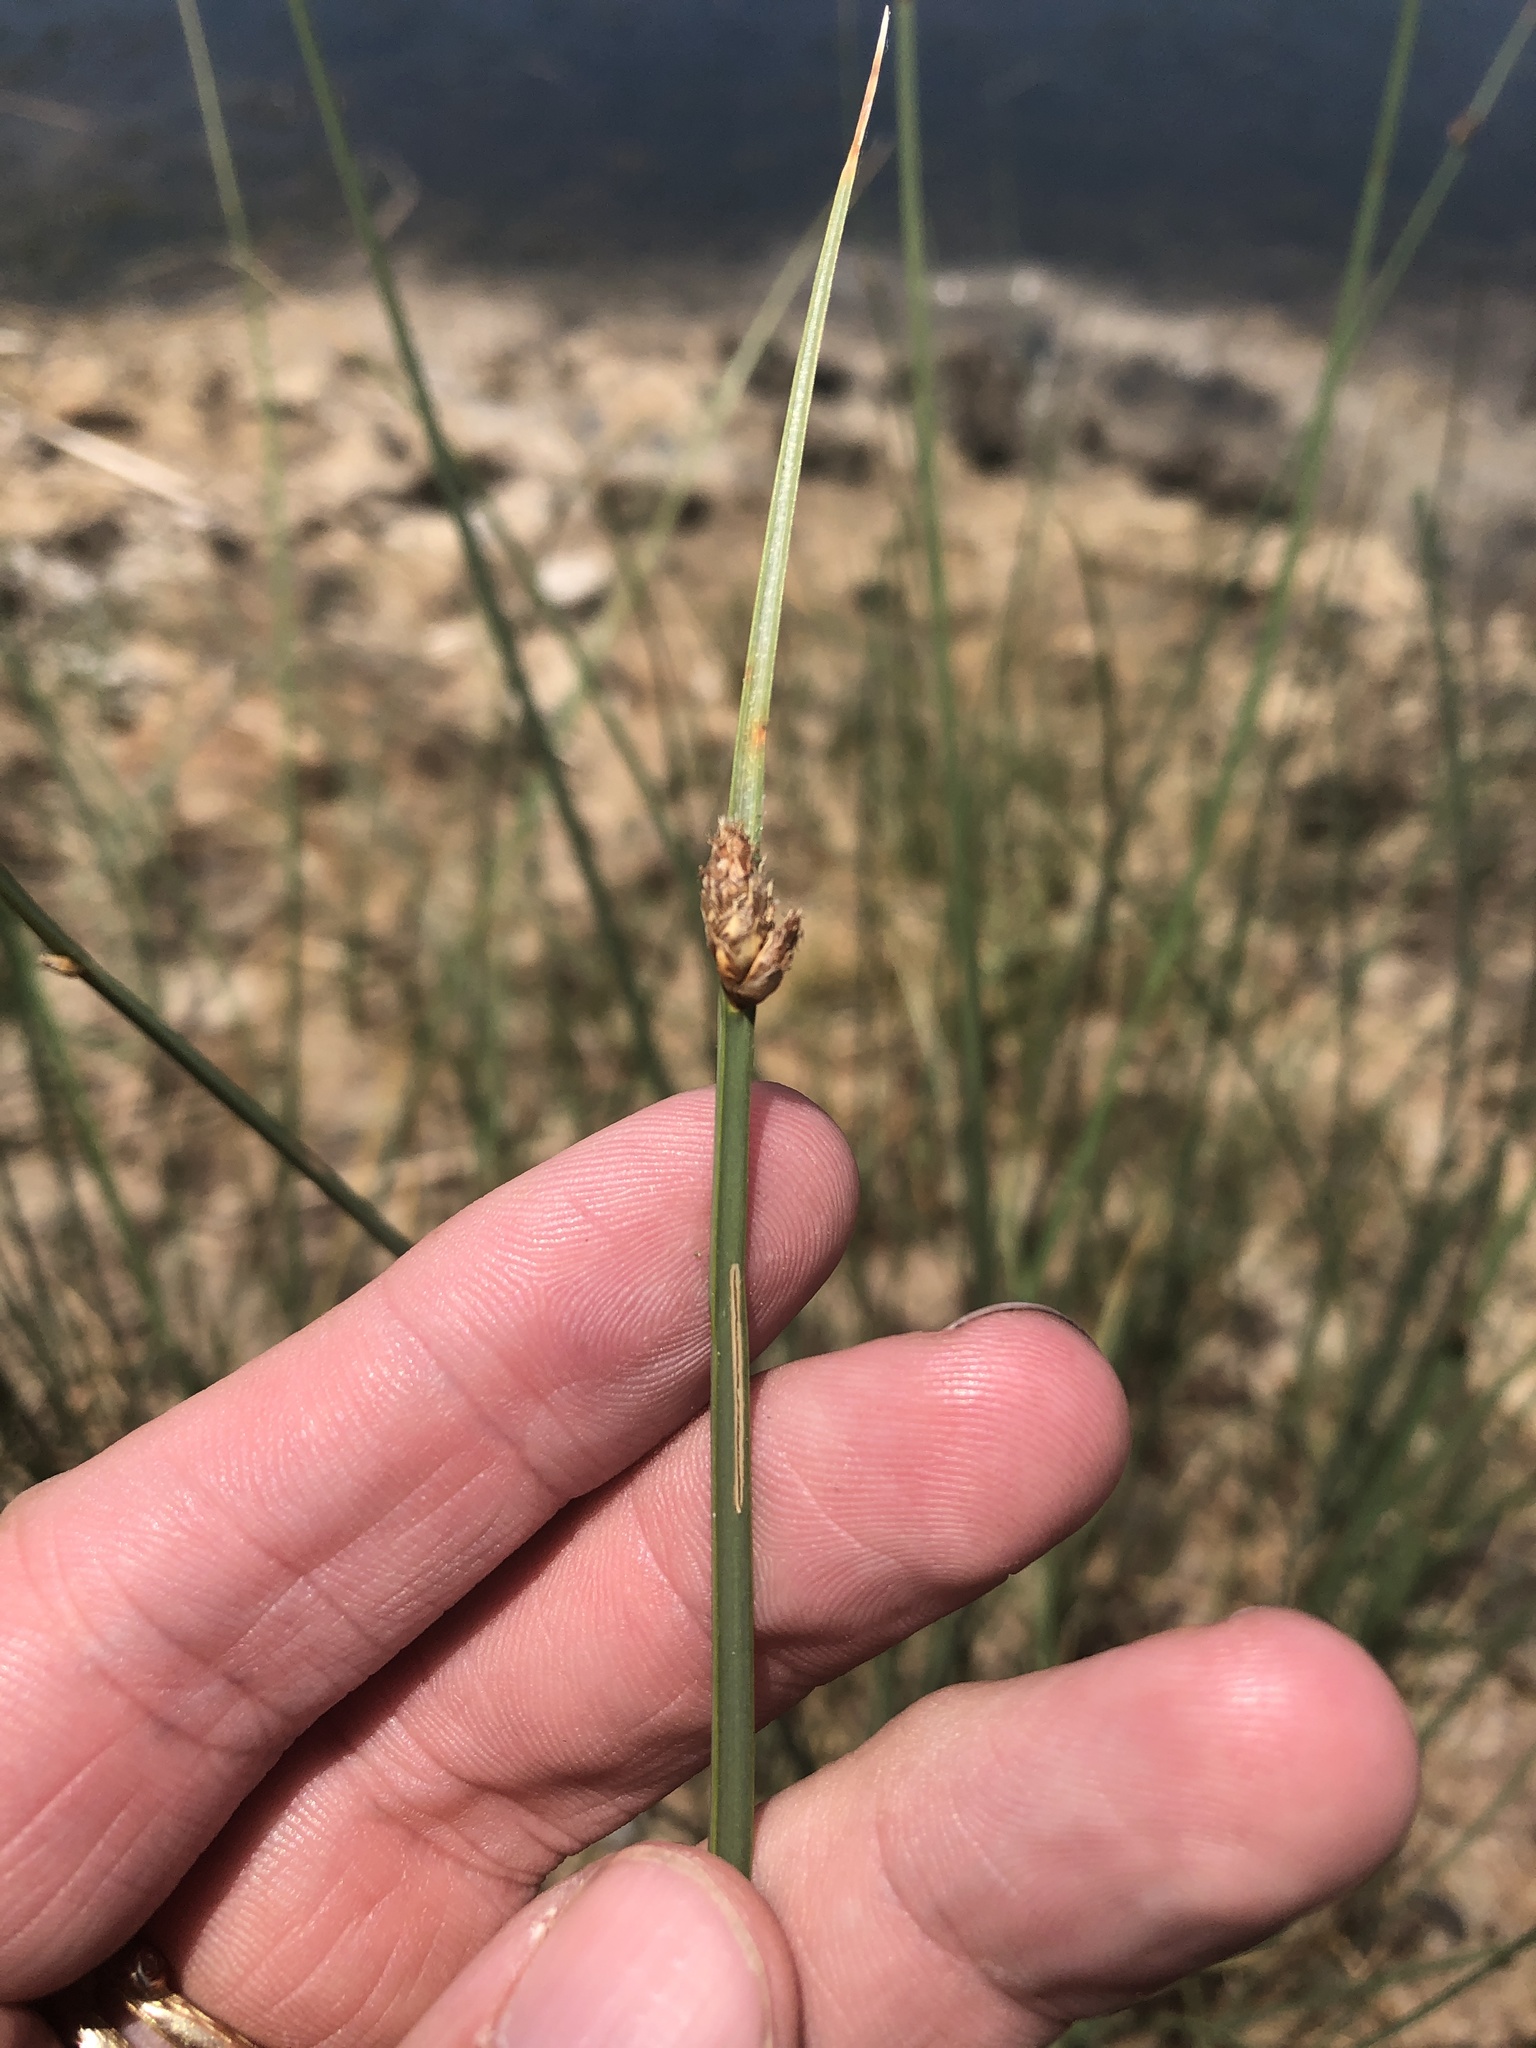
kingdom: Plantae
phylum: Tracheophyta
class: Liliopsida
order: Poales
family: Cyperaceae
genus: Schoenoplectus
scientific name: Schoenoplectus pungens
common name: Sharp club-rush
